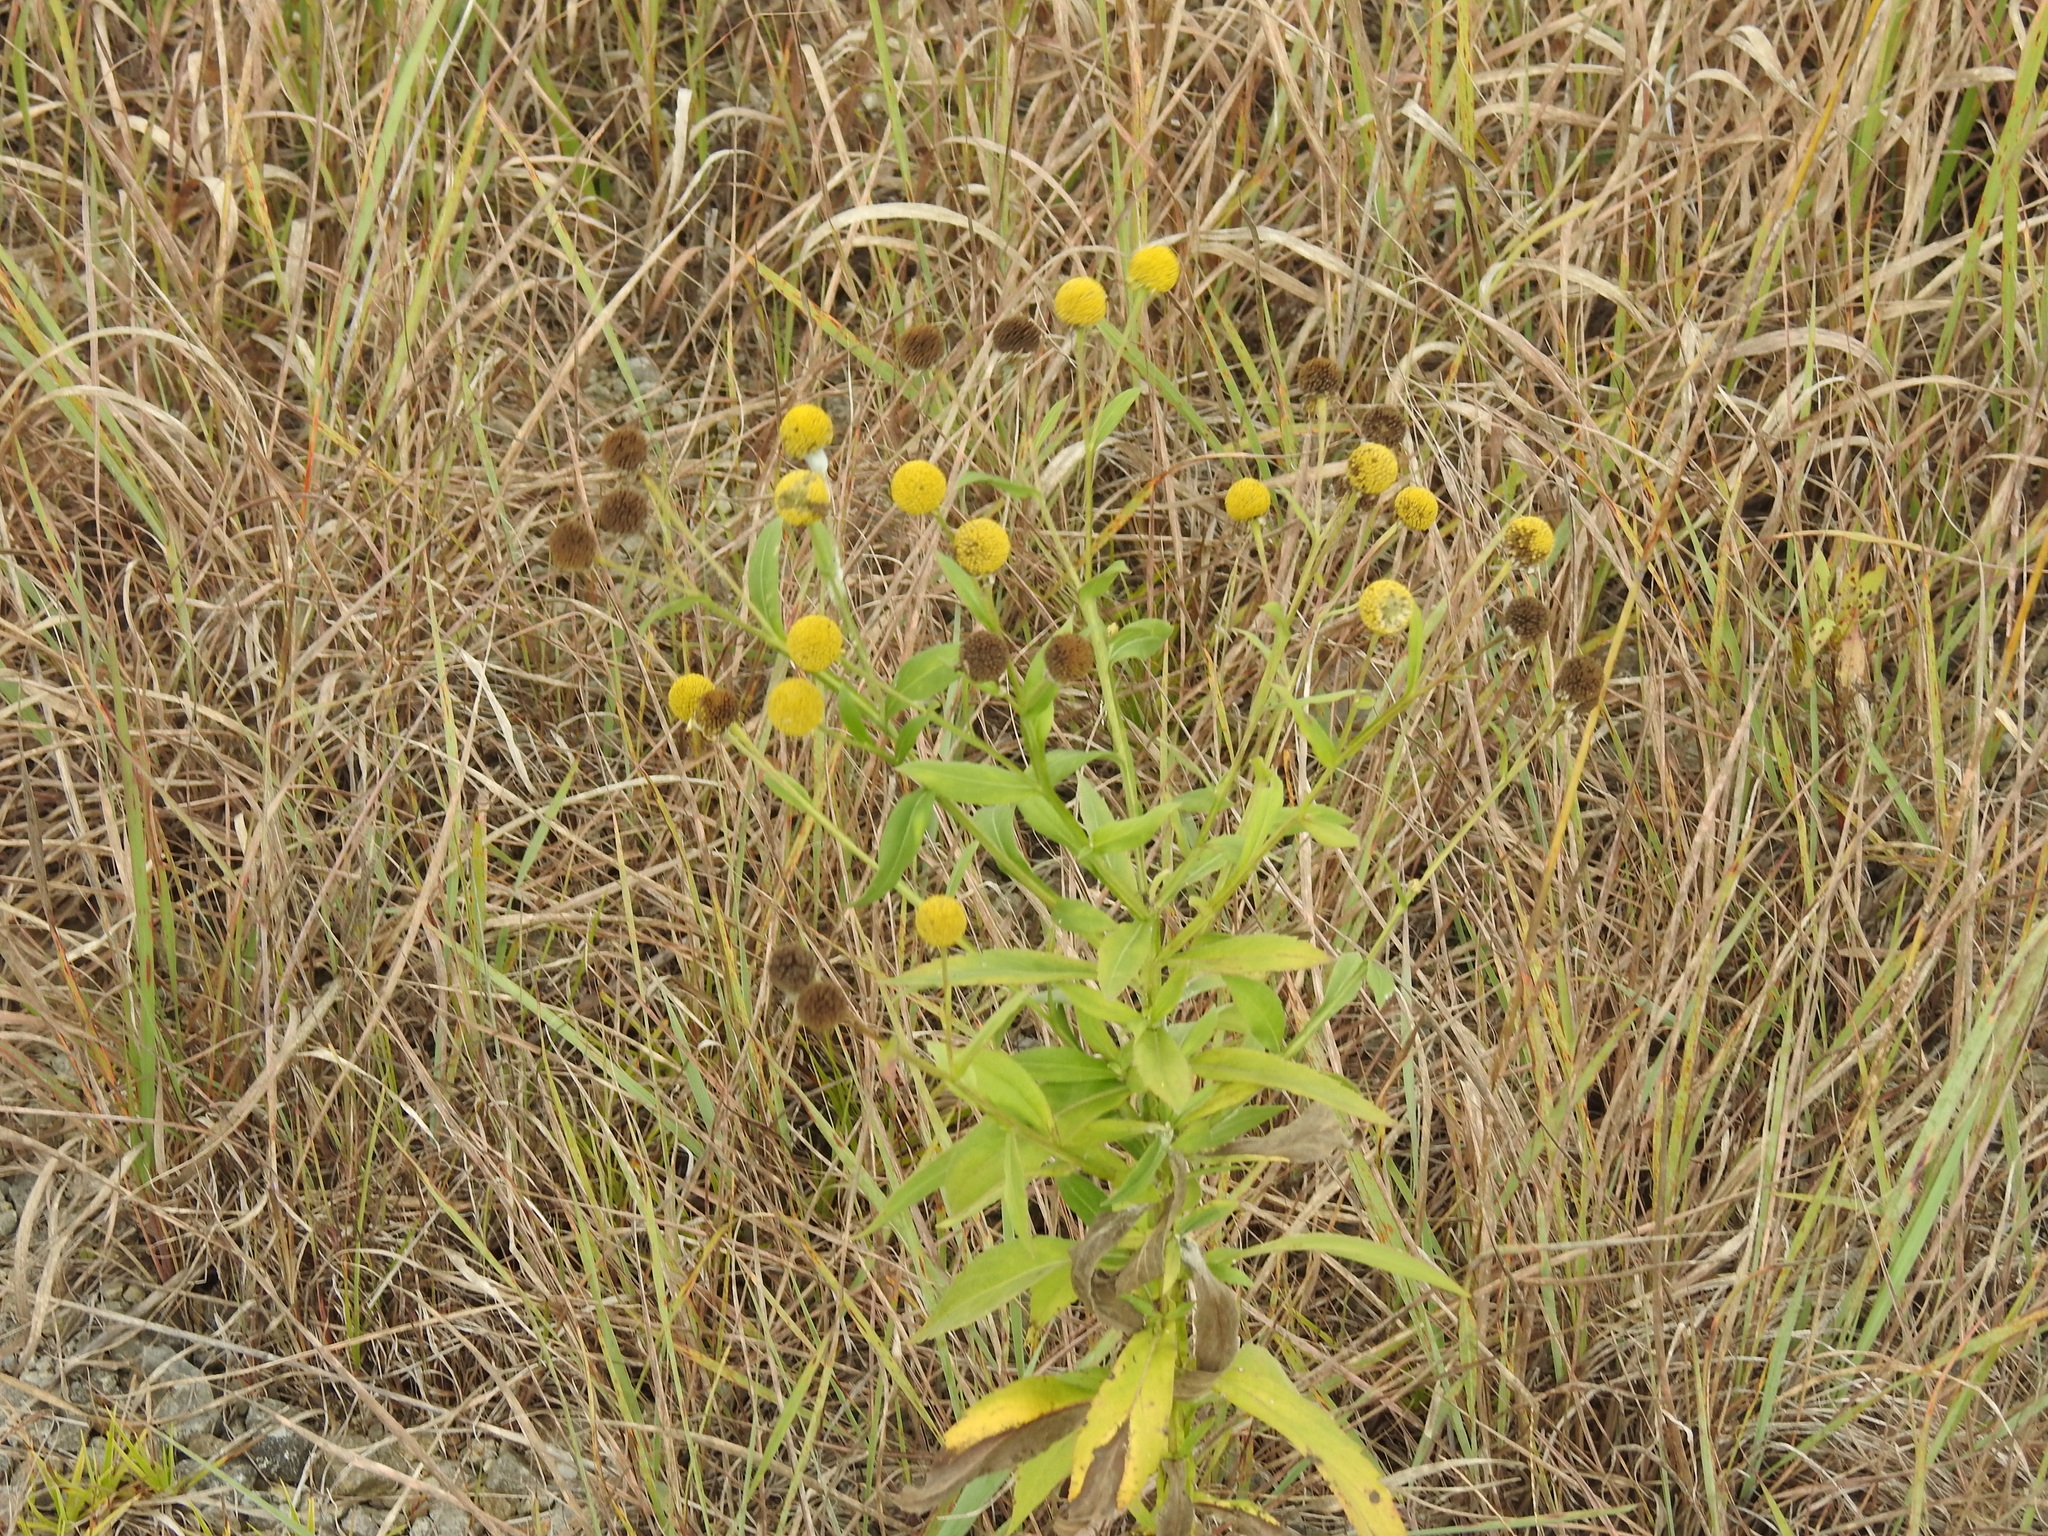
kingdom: Plantae
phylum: Tracheophyta
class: Magnoliopsida
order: Asterales
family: Asteraceae
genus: Helenium
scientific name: Helenium autumnale
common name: Sneezeweed
